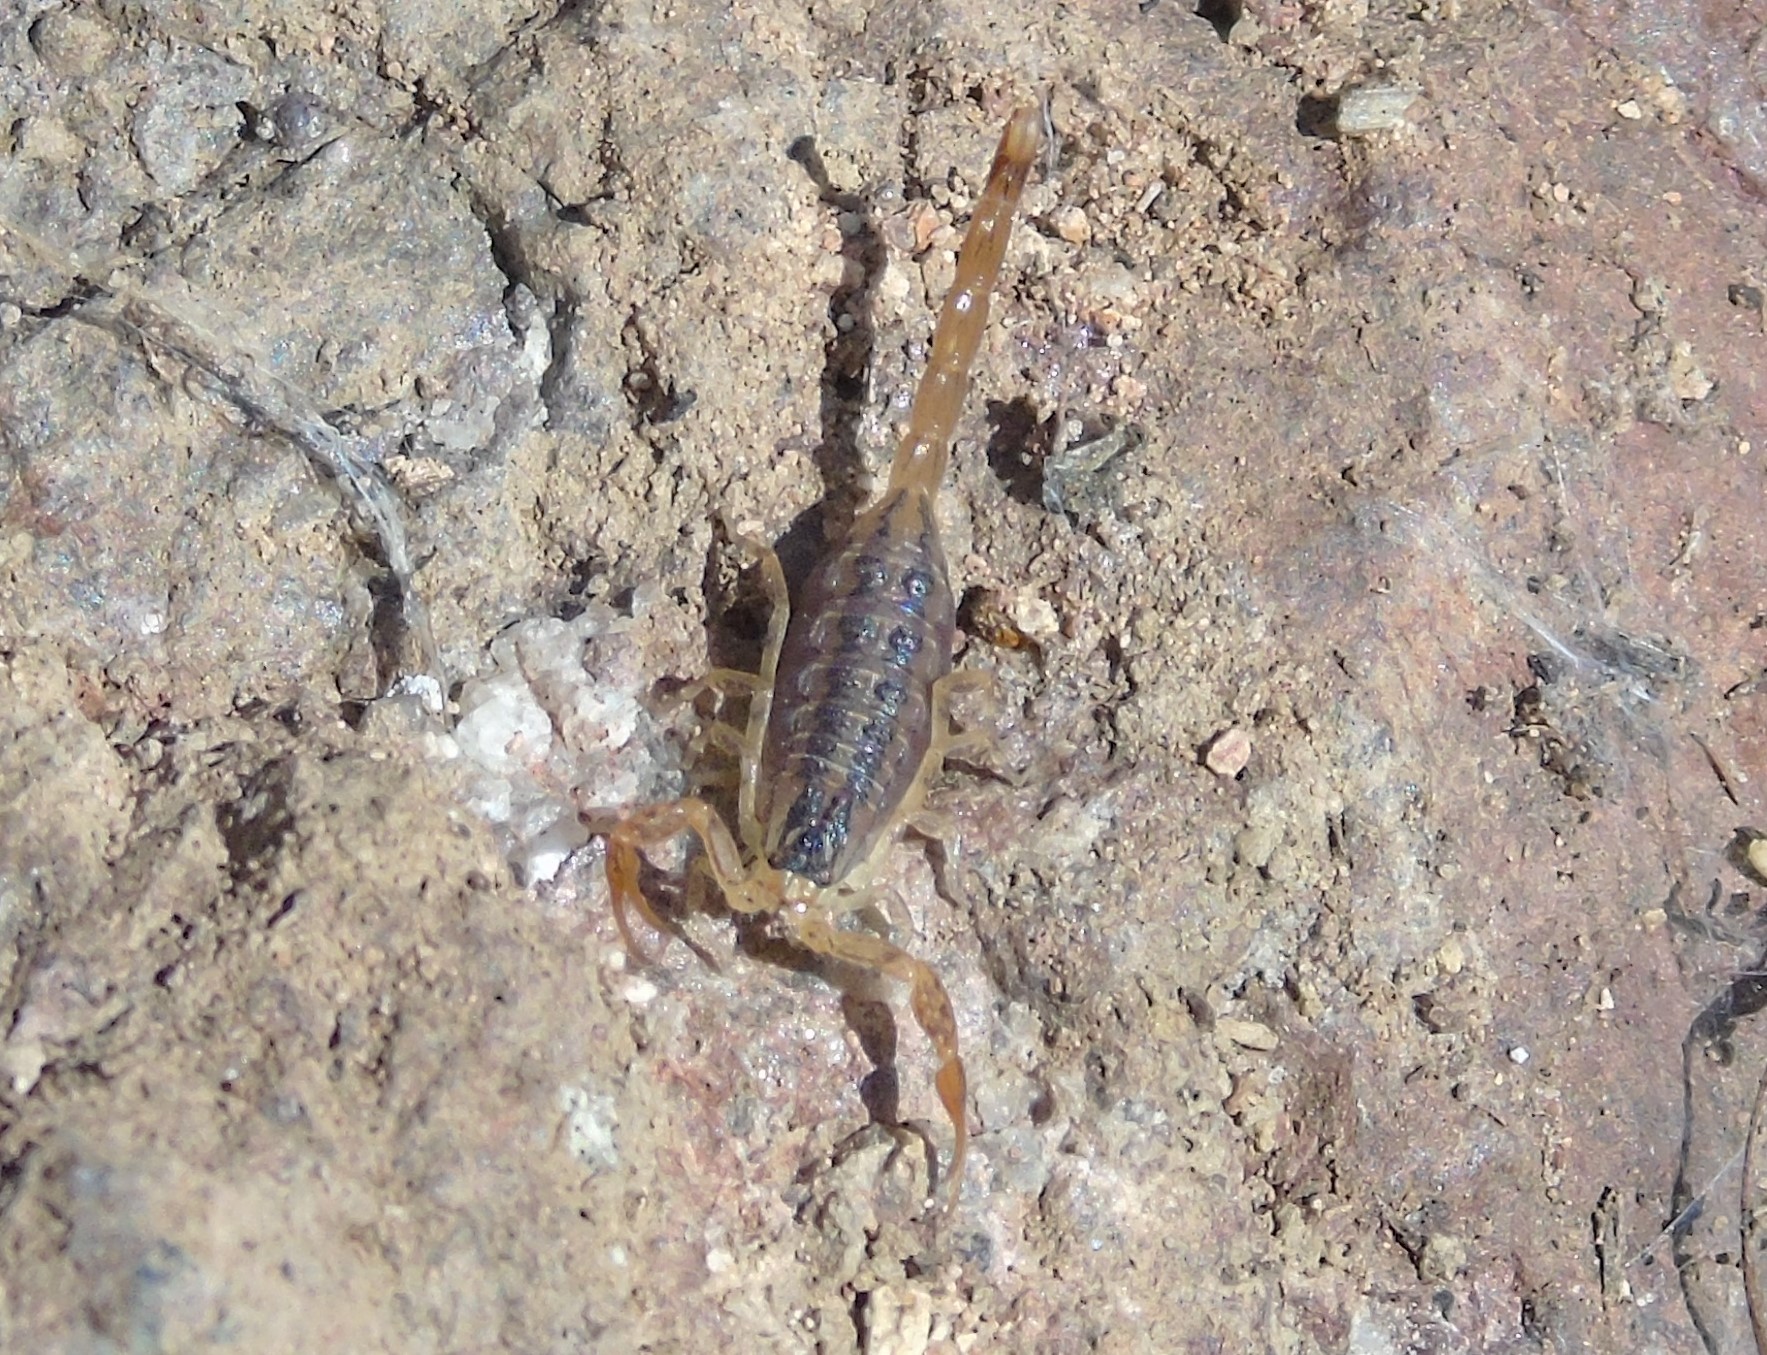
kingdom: Animalia
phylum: Arthropoda
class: Arachnida
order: Scorpiones
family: Buthidae
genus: Centruroides
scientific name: Centruroides baldazoi
